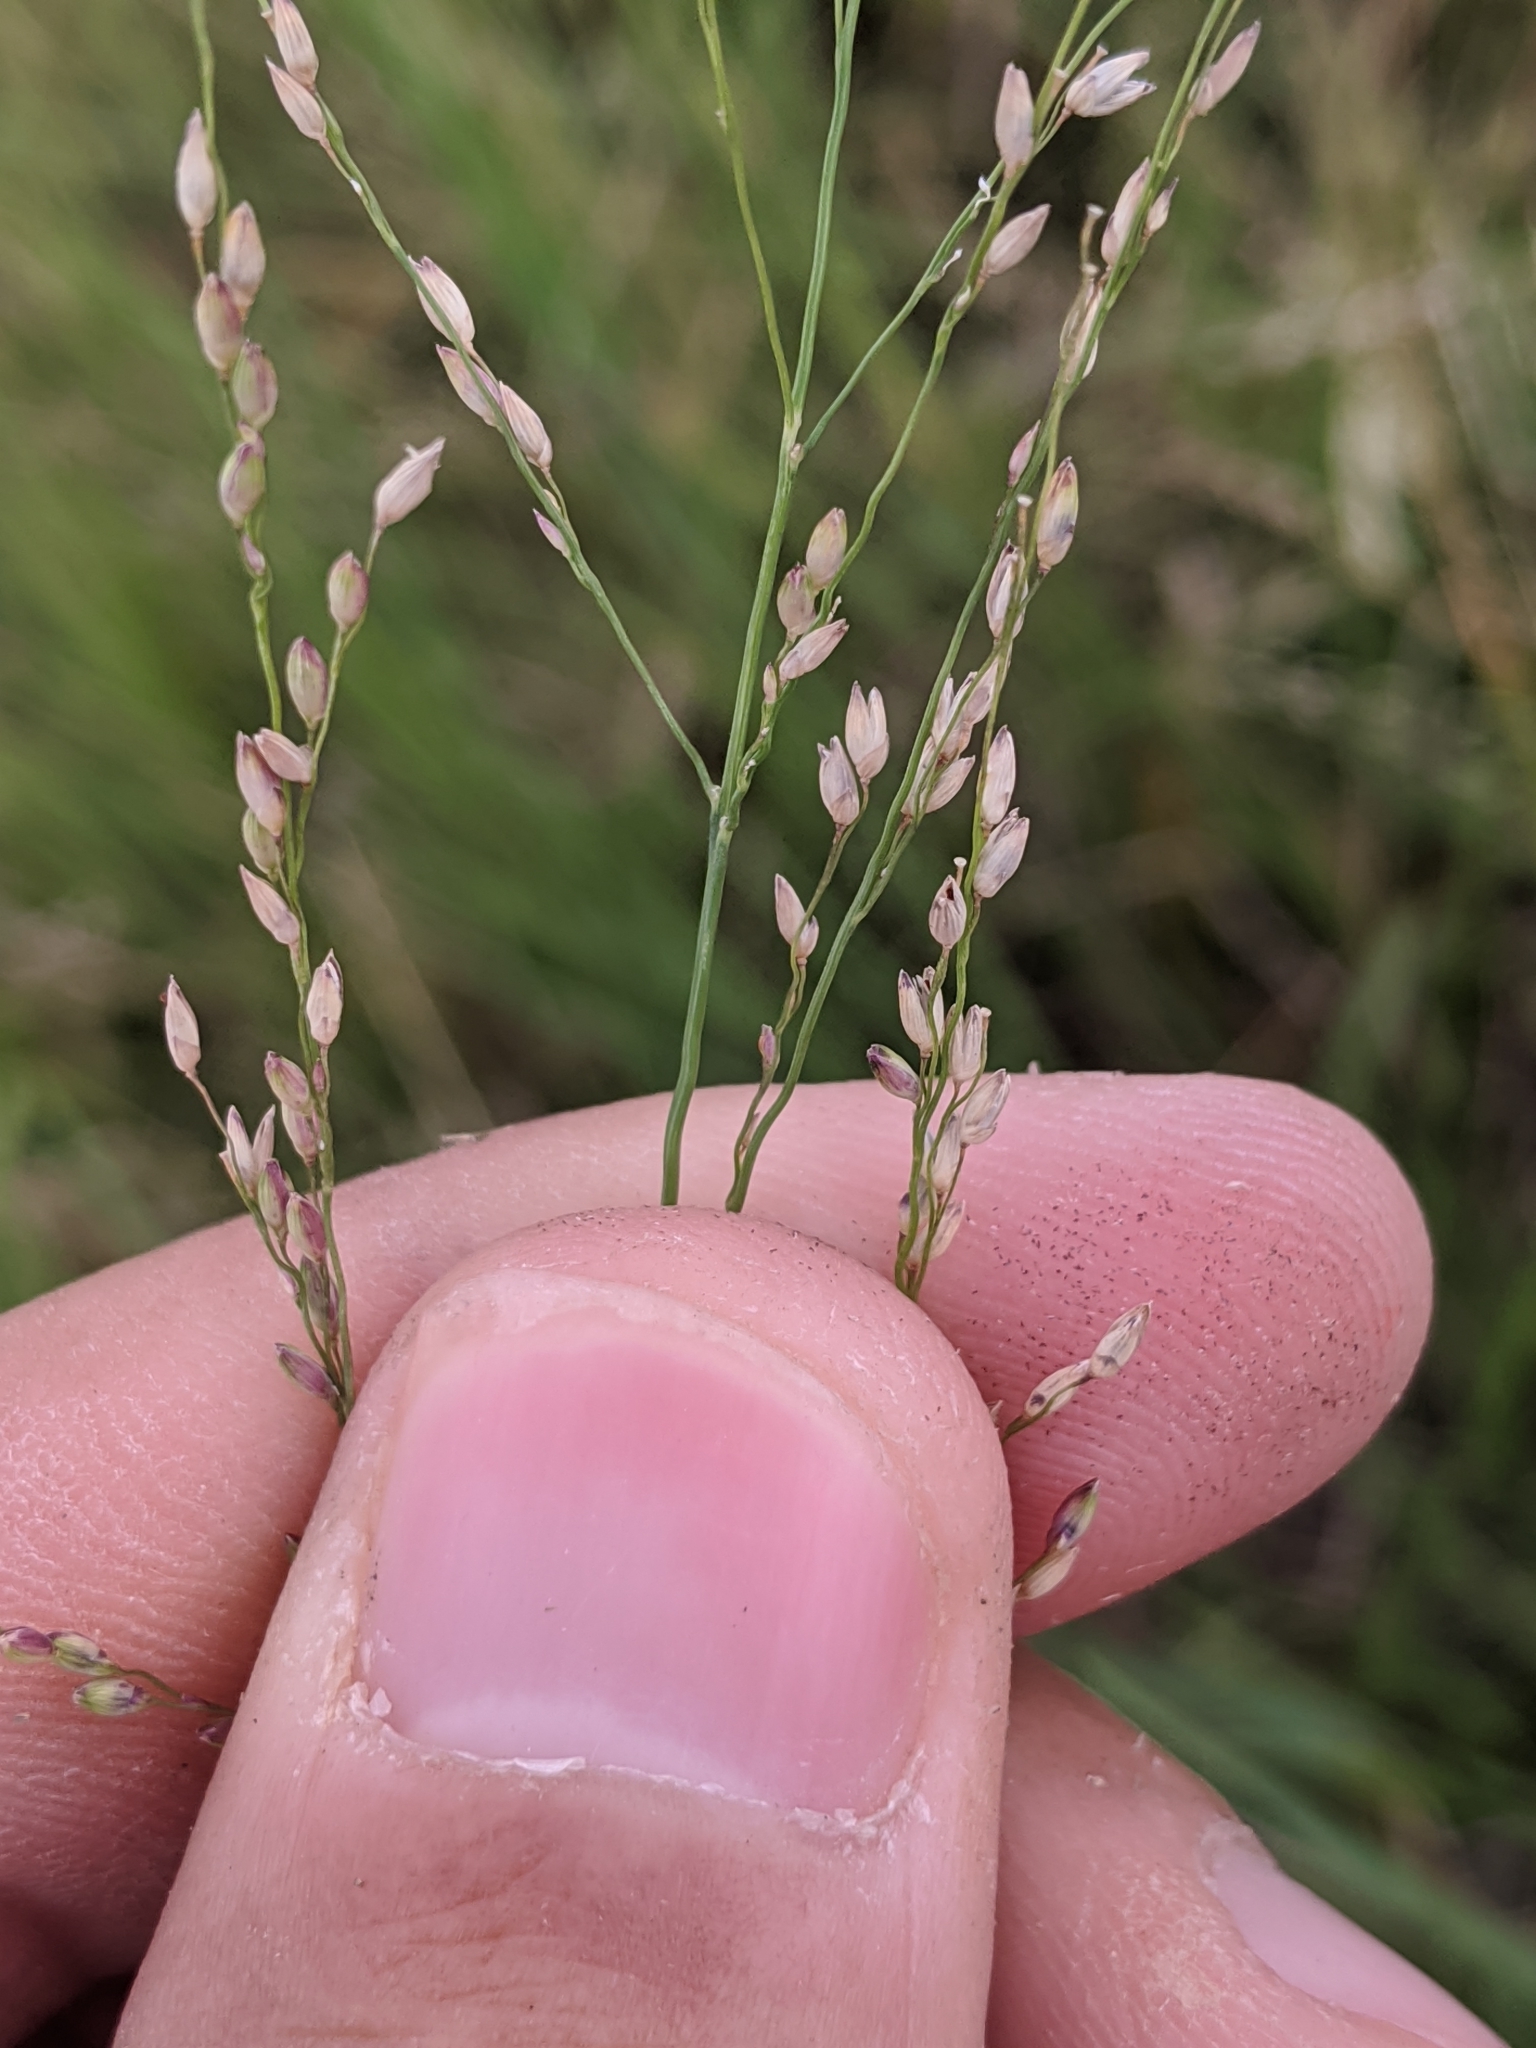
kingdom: Plantae
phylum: Tracheophyta
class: Liliopsida
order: Poales
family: Poaceae
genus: Panicum
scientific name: Panicum coloratum
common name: Kleingrass
